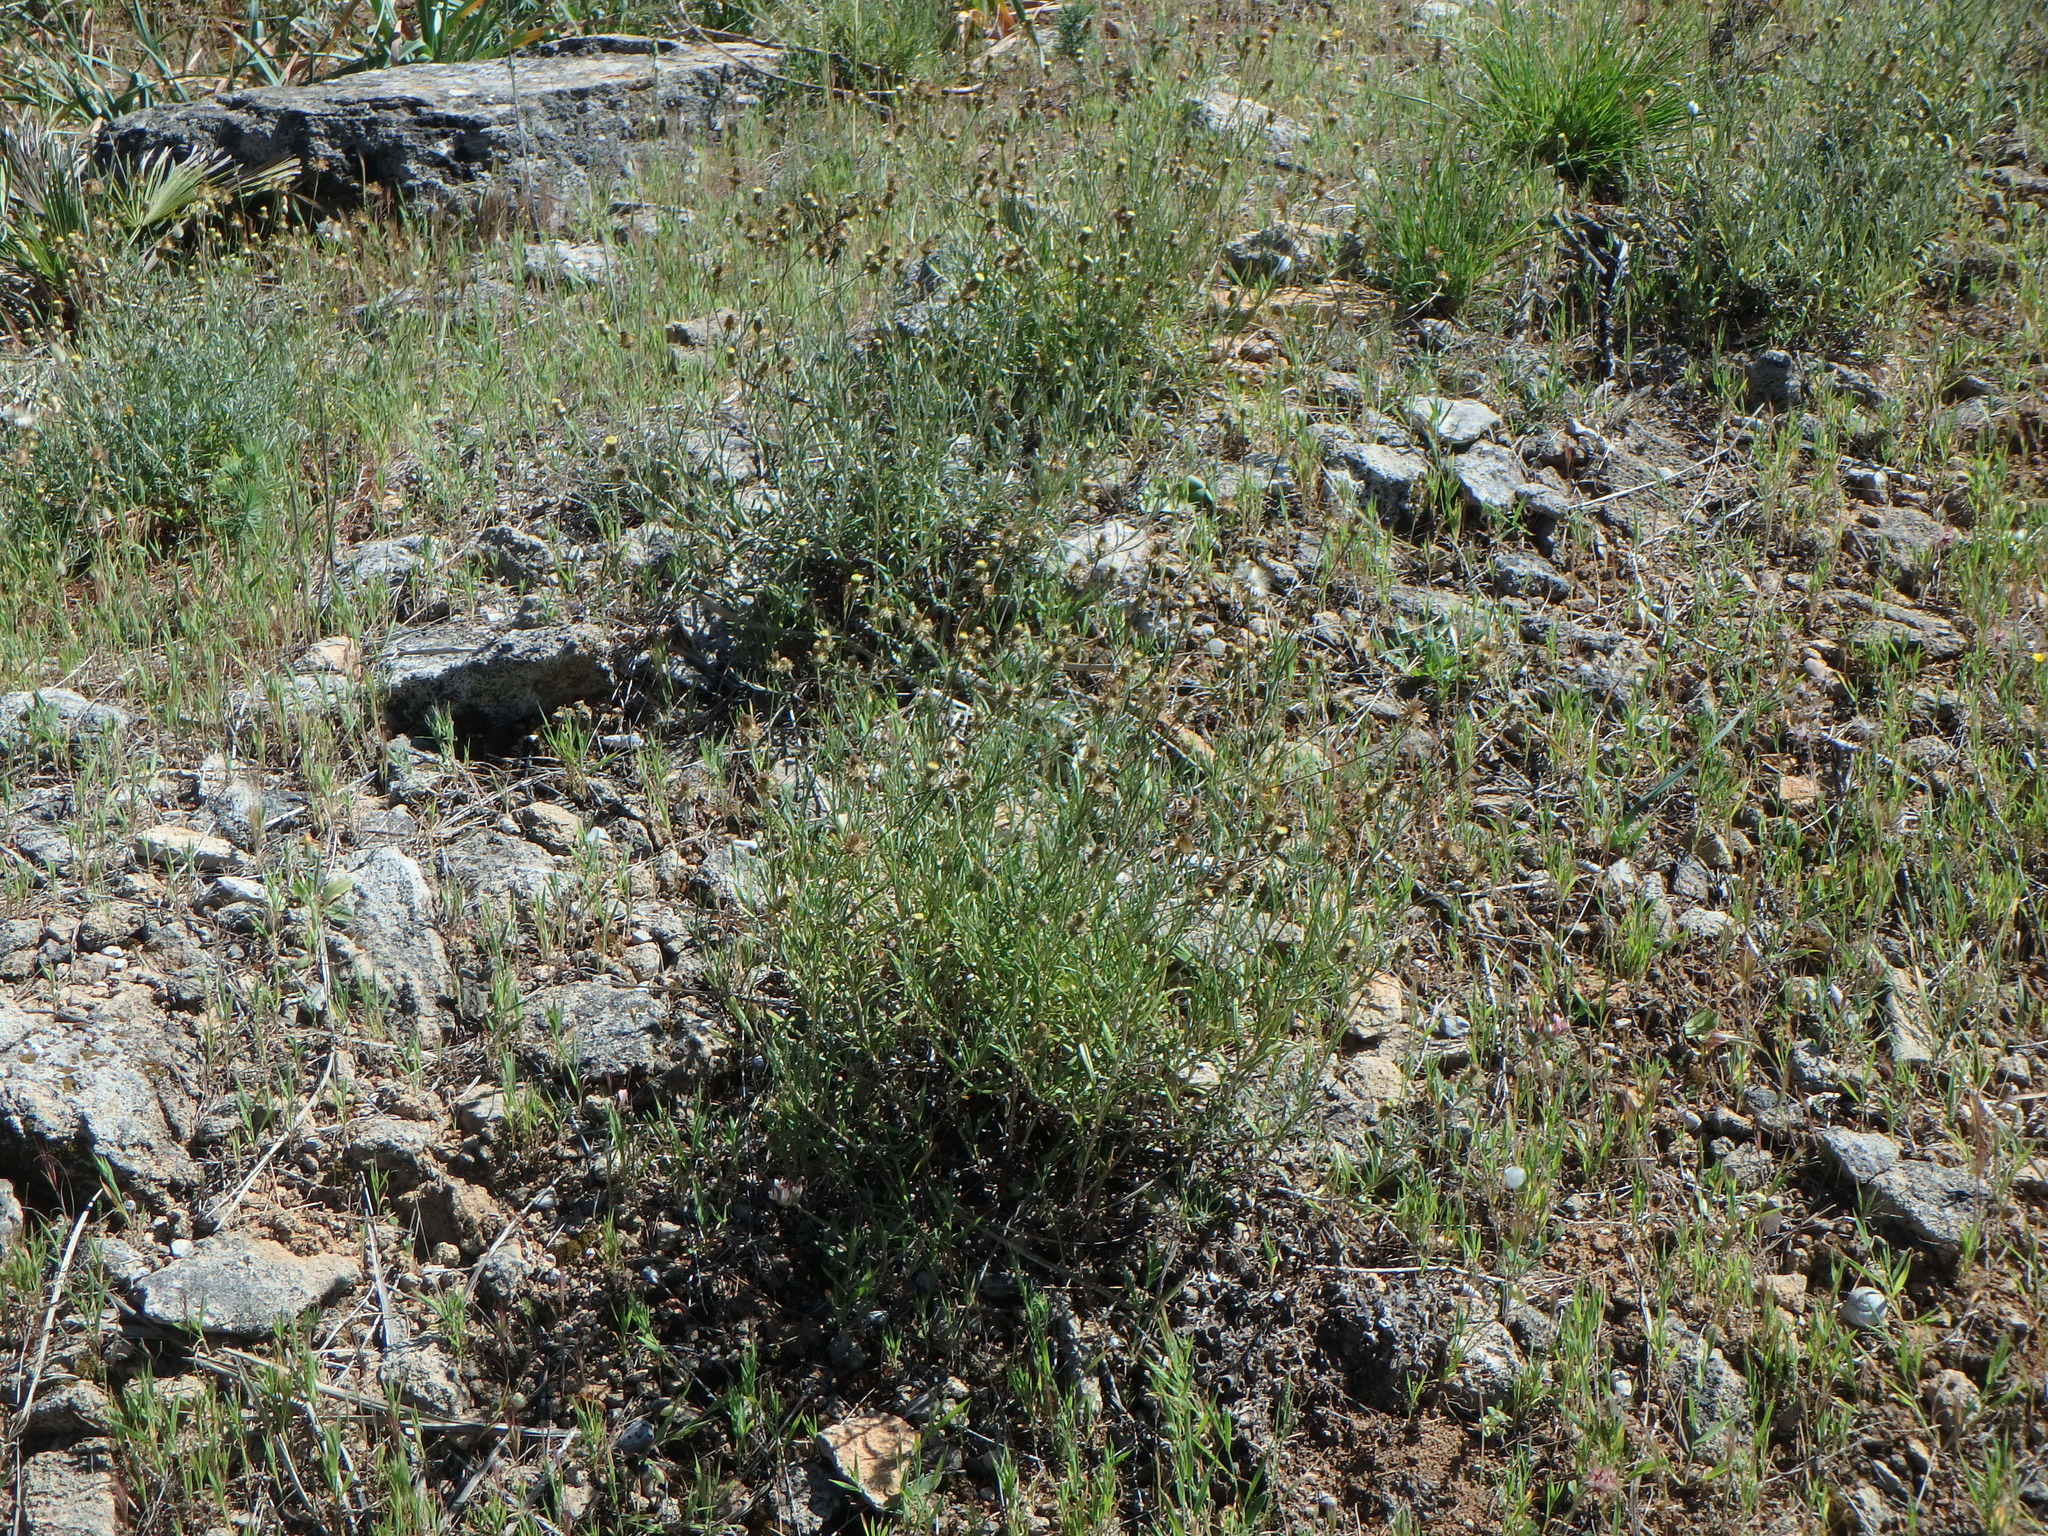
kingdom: Plantae
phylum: Tracheophyta
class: Magnoliopsida
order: Asterales
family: Asteraceae
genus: Phagnalon
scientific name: Phagnalon saxatile
